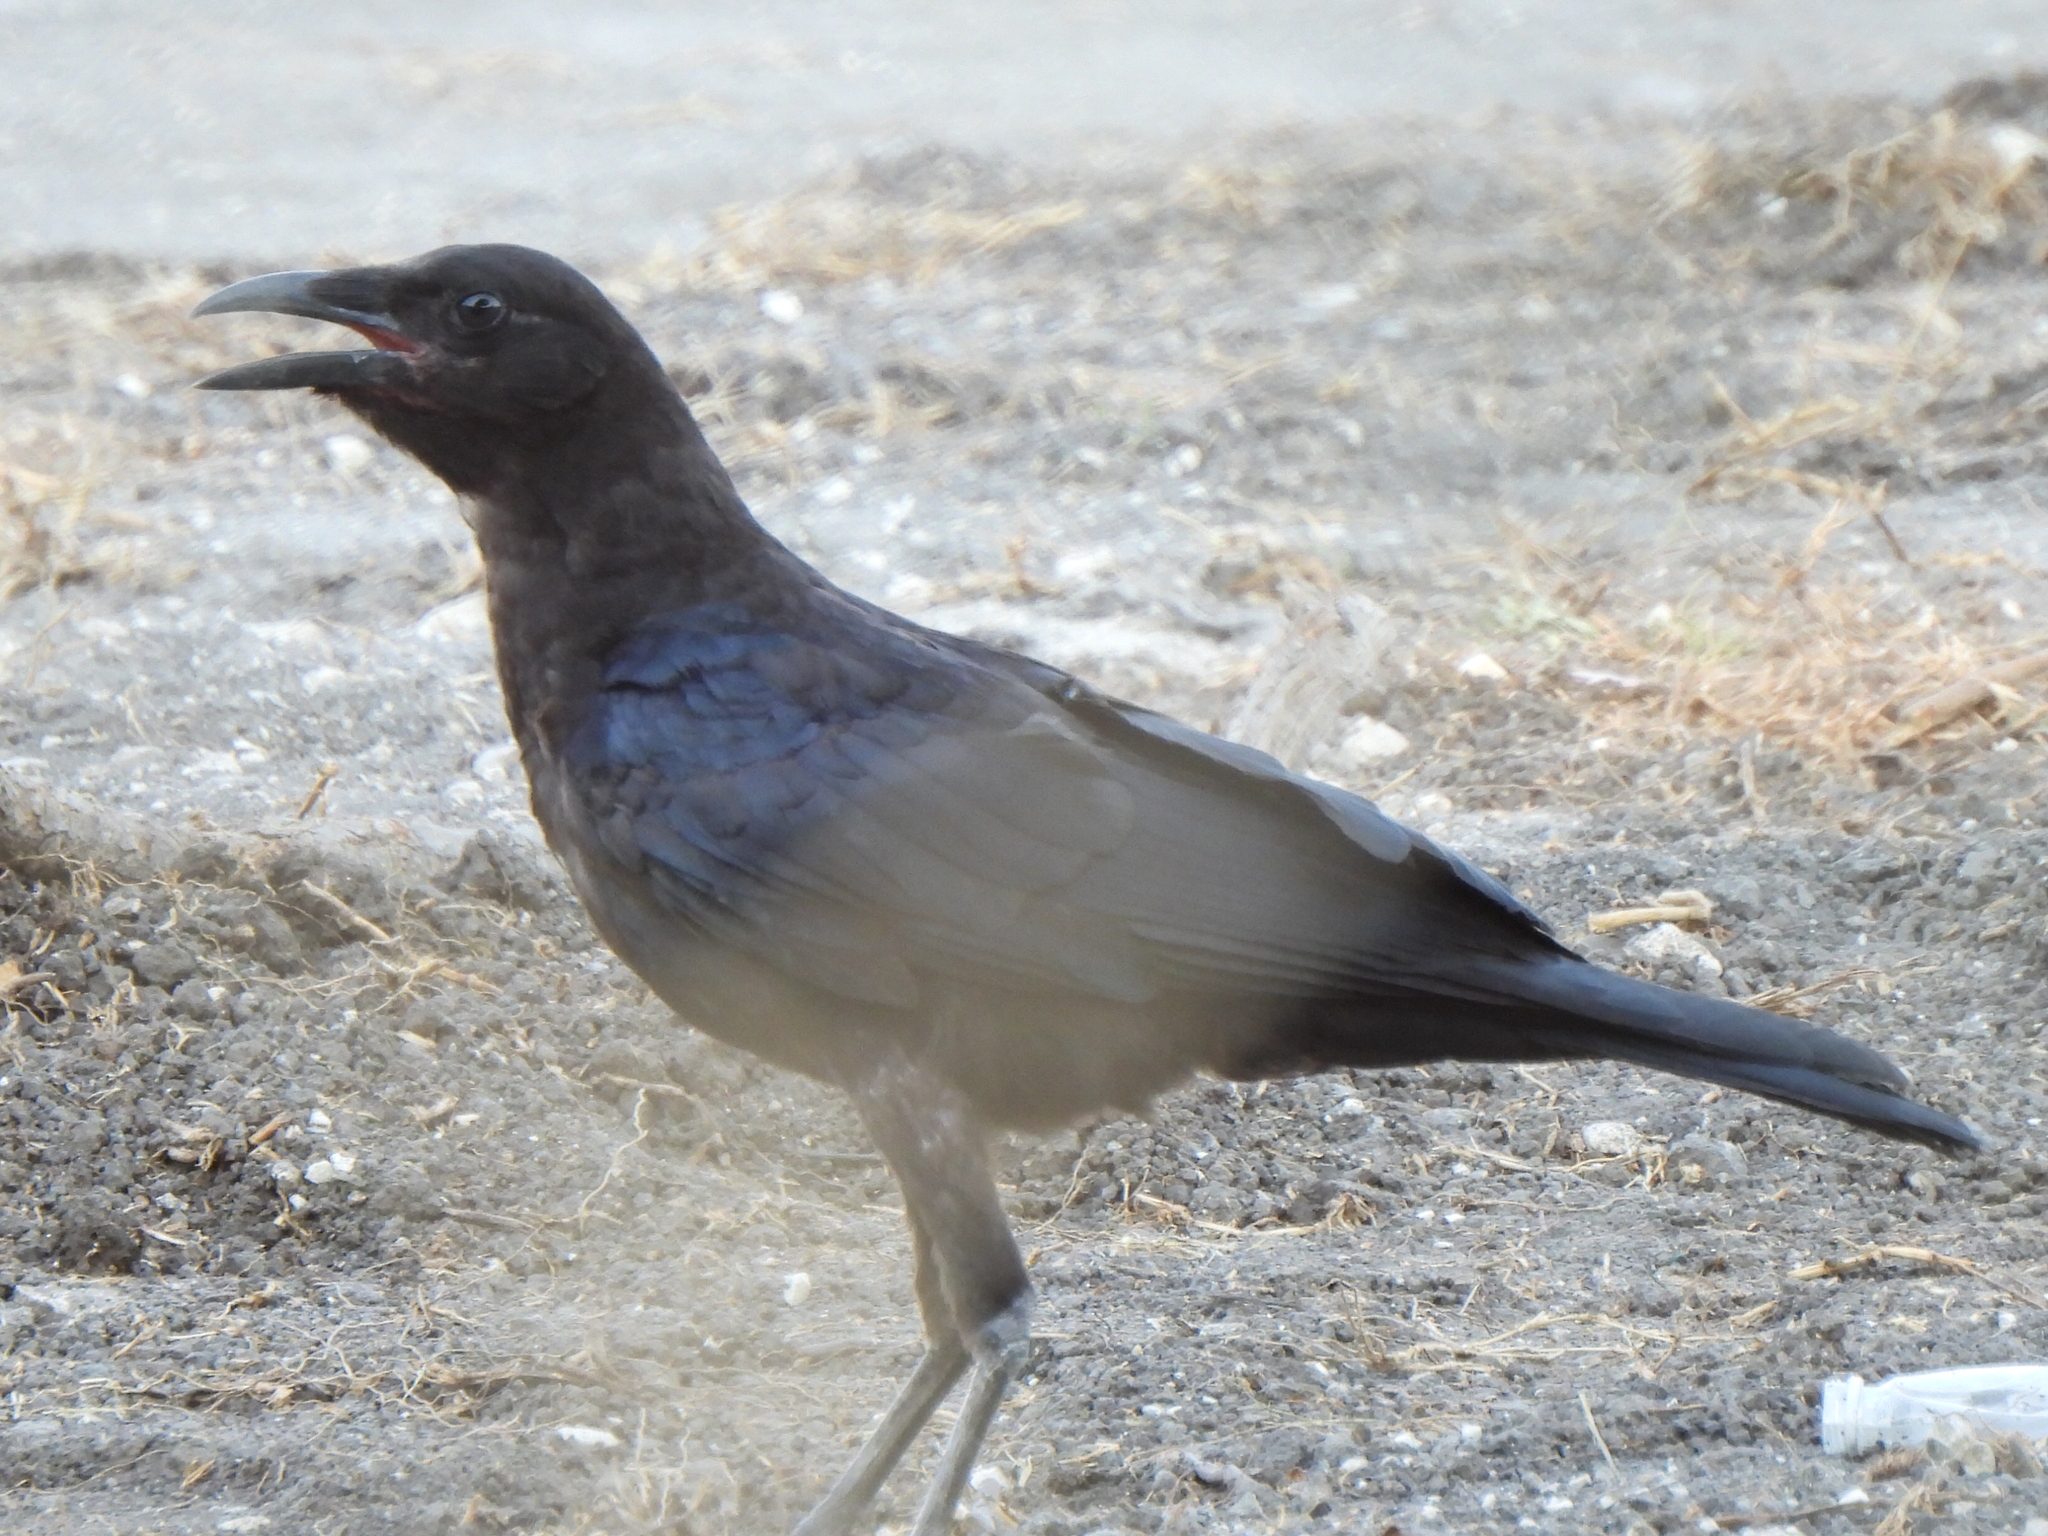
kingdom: Animalia
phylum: Chordata
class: Aves
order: Passeriformes
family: Corvidae
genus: Corvus
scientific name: Corvus brachyrhynchos
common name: American crow
